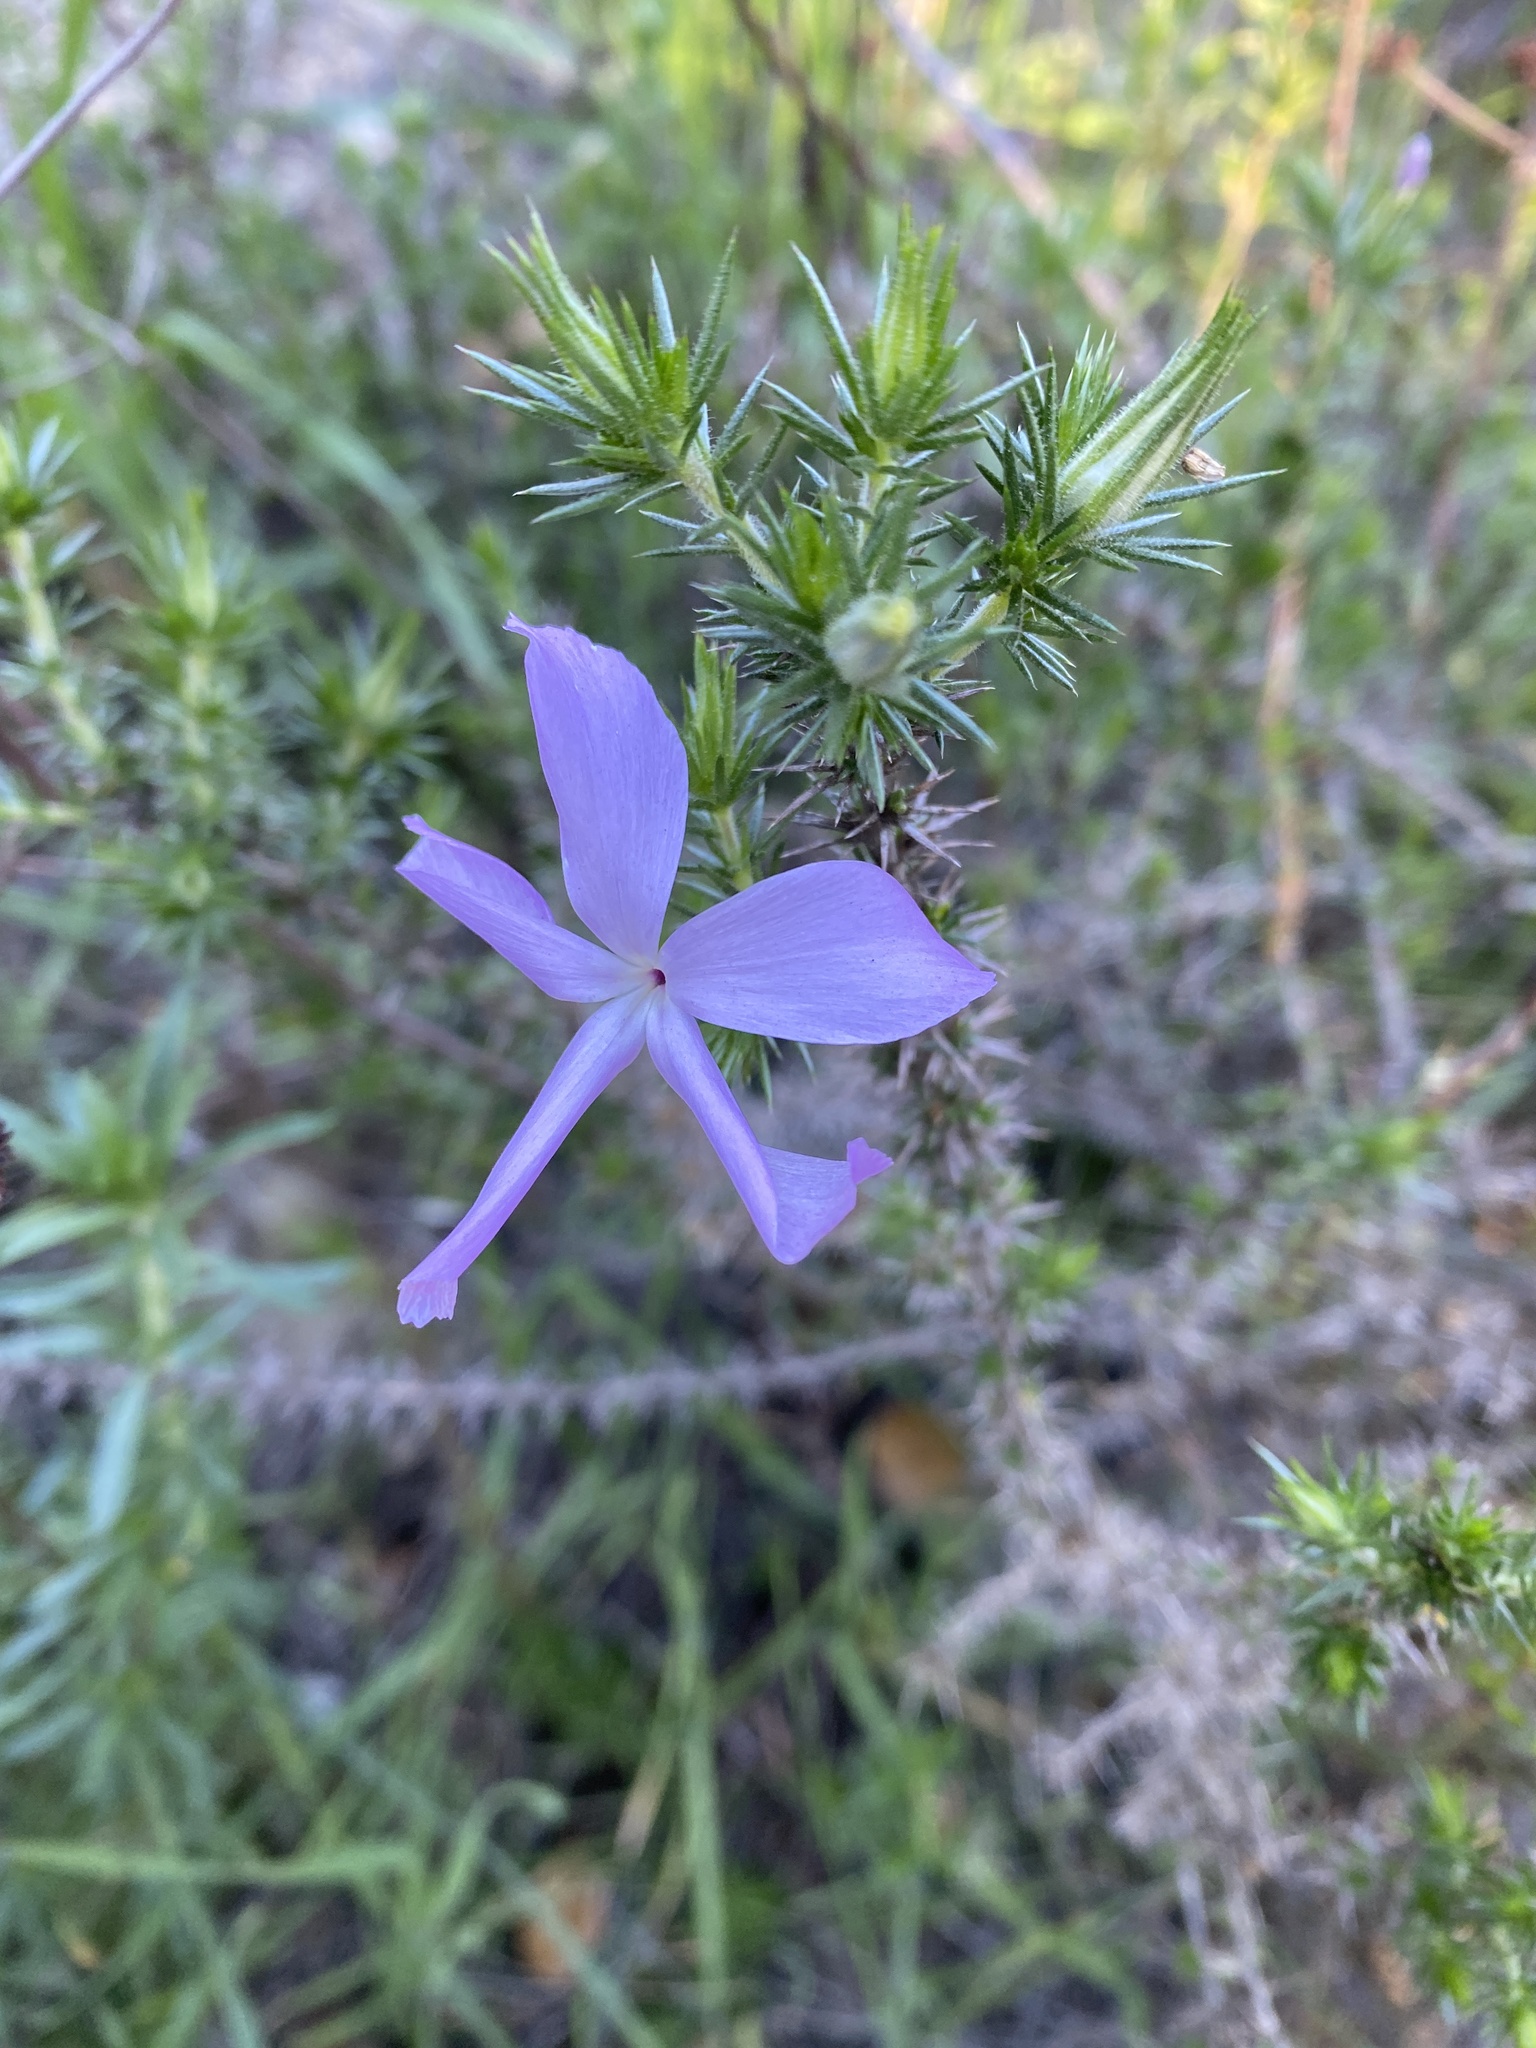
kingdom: Plantae
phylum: Tracheophyta
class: Magnoliopsida
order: Ericales
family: Polemoniaceae
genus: Linanthus
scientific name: Linanthus californicus
